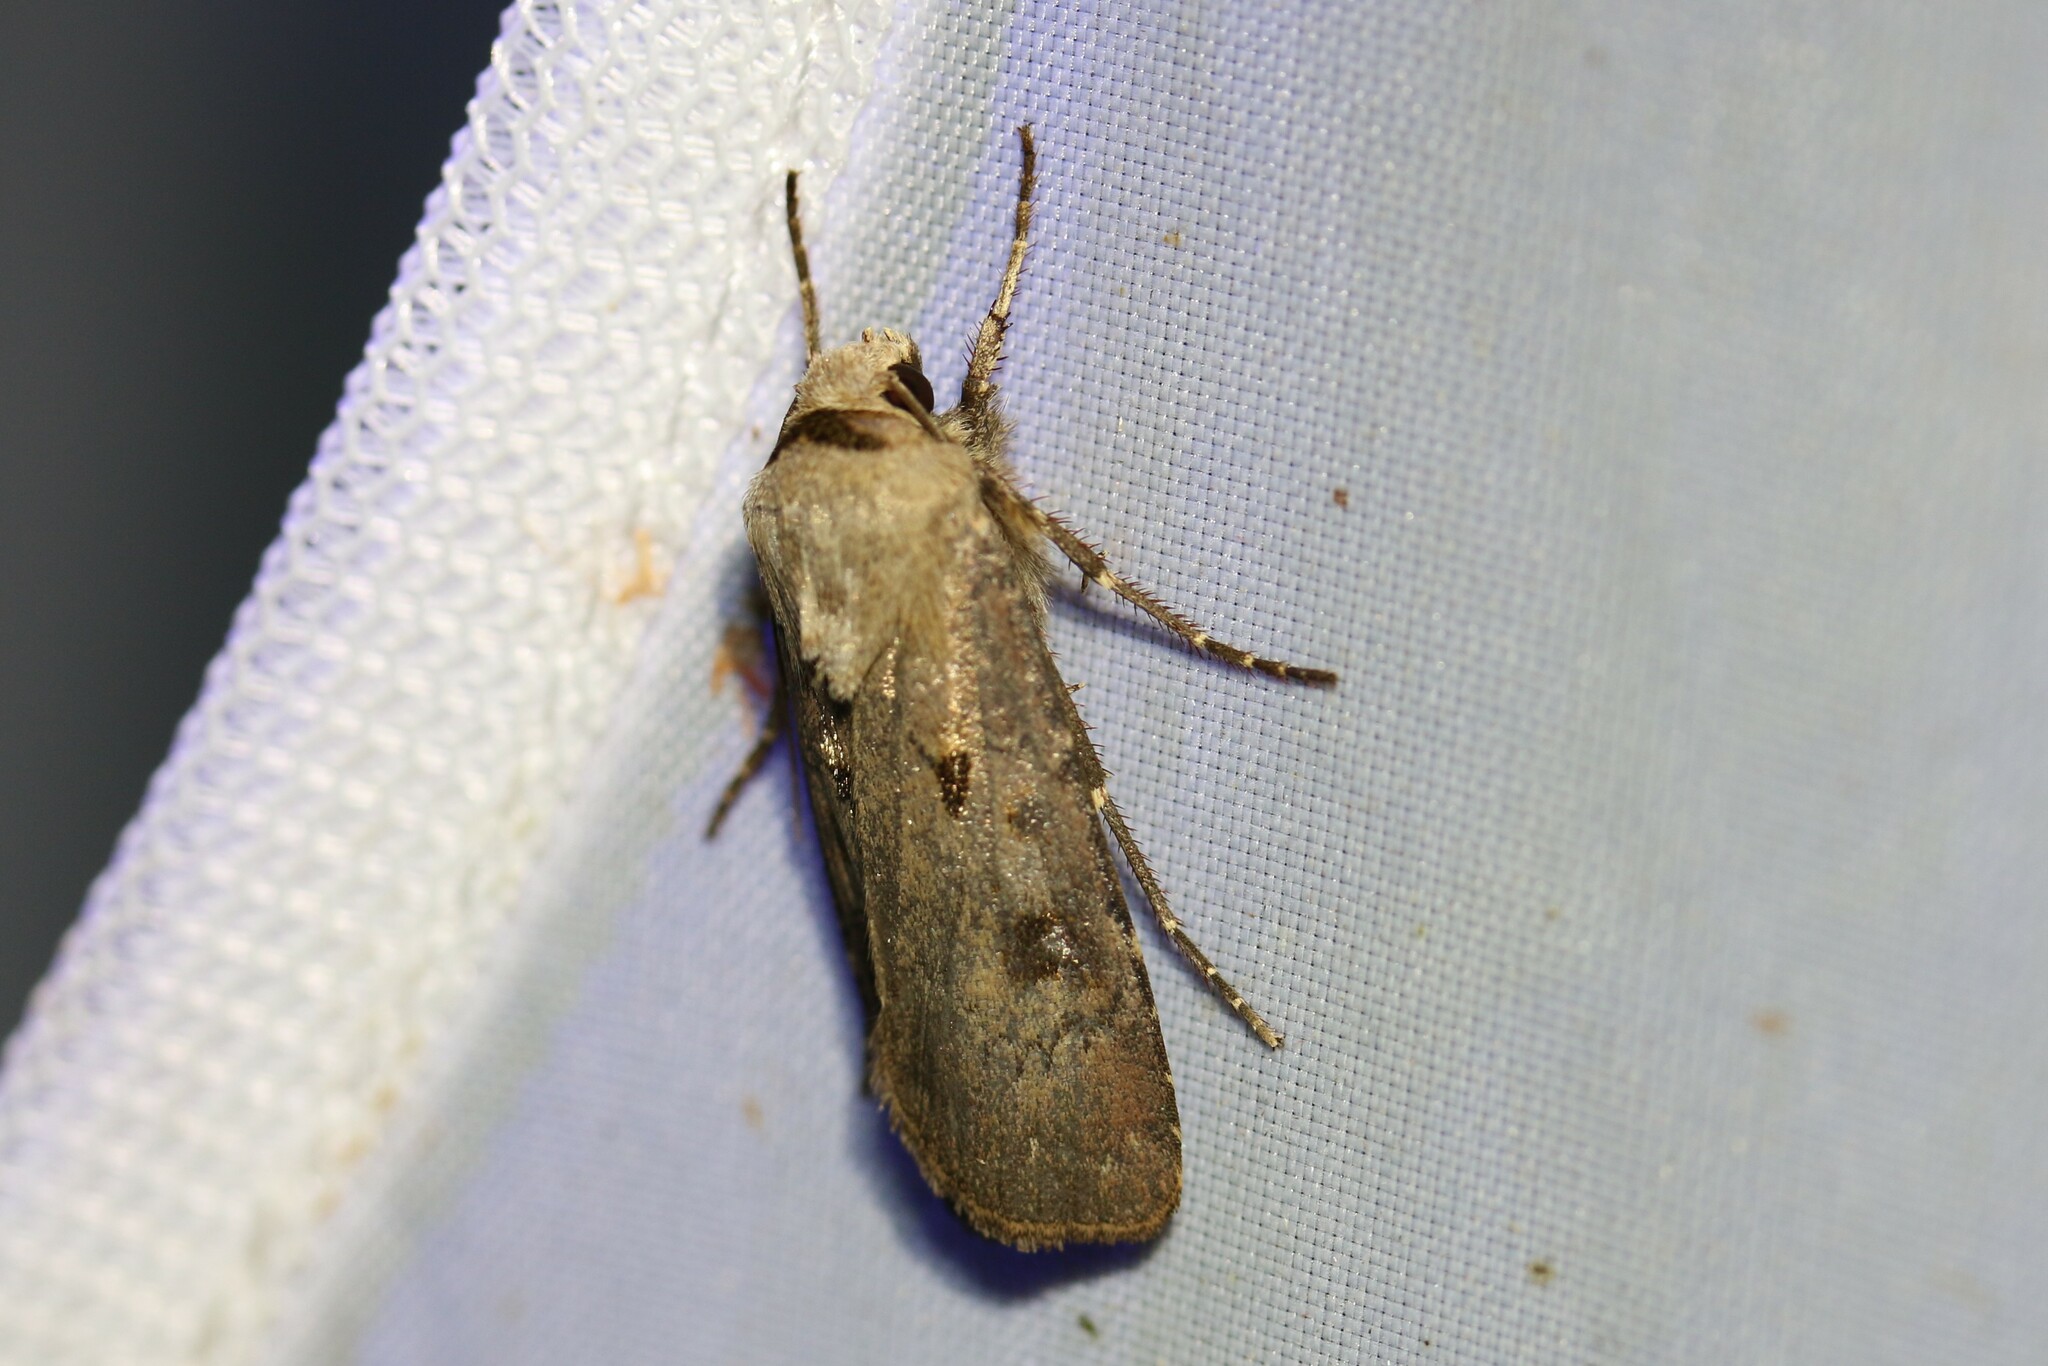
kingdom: Animalia
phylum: Arthropoda
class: Insecta
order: Lepidoptera
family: Noctuidae
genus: Agrotis
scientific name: Agrotis exclamationis
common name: Heart and dart
